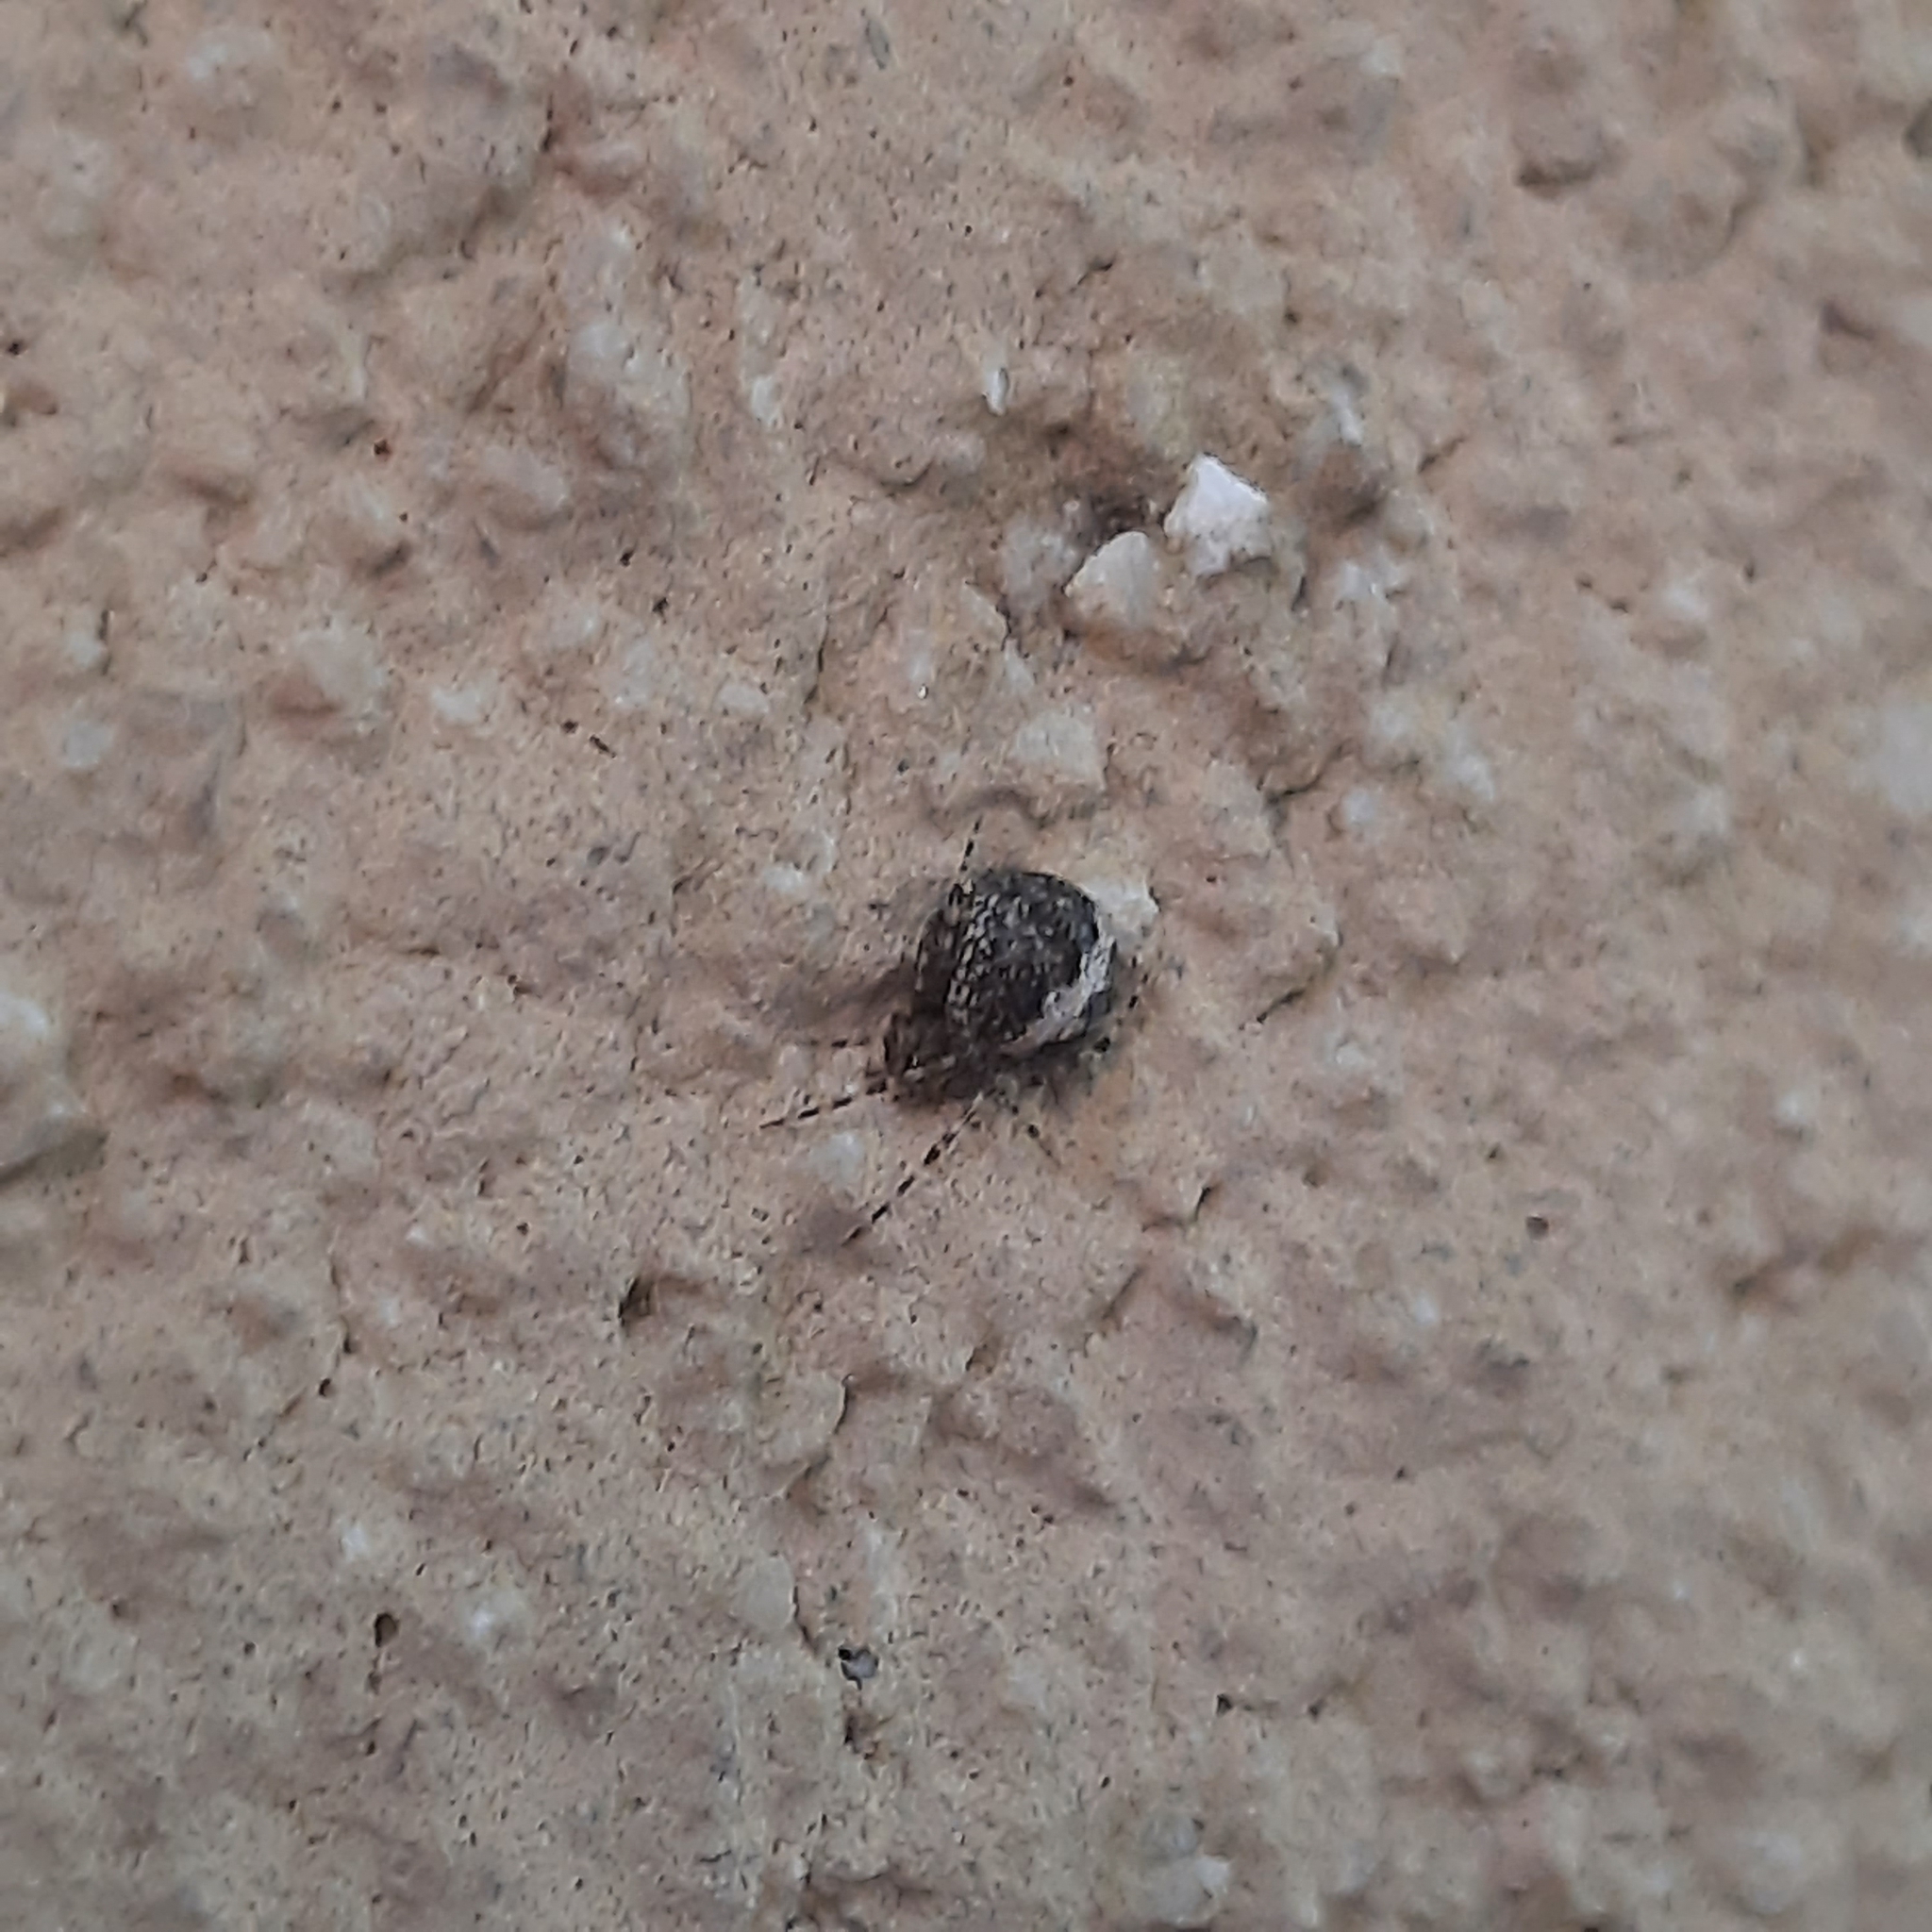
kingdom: Animalia
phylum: Arthropoda
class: Arachnida
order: Araneae
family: Theridiidae
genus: Theridion
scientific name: Theridion
